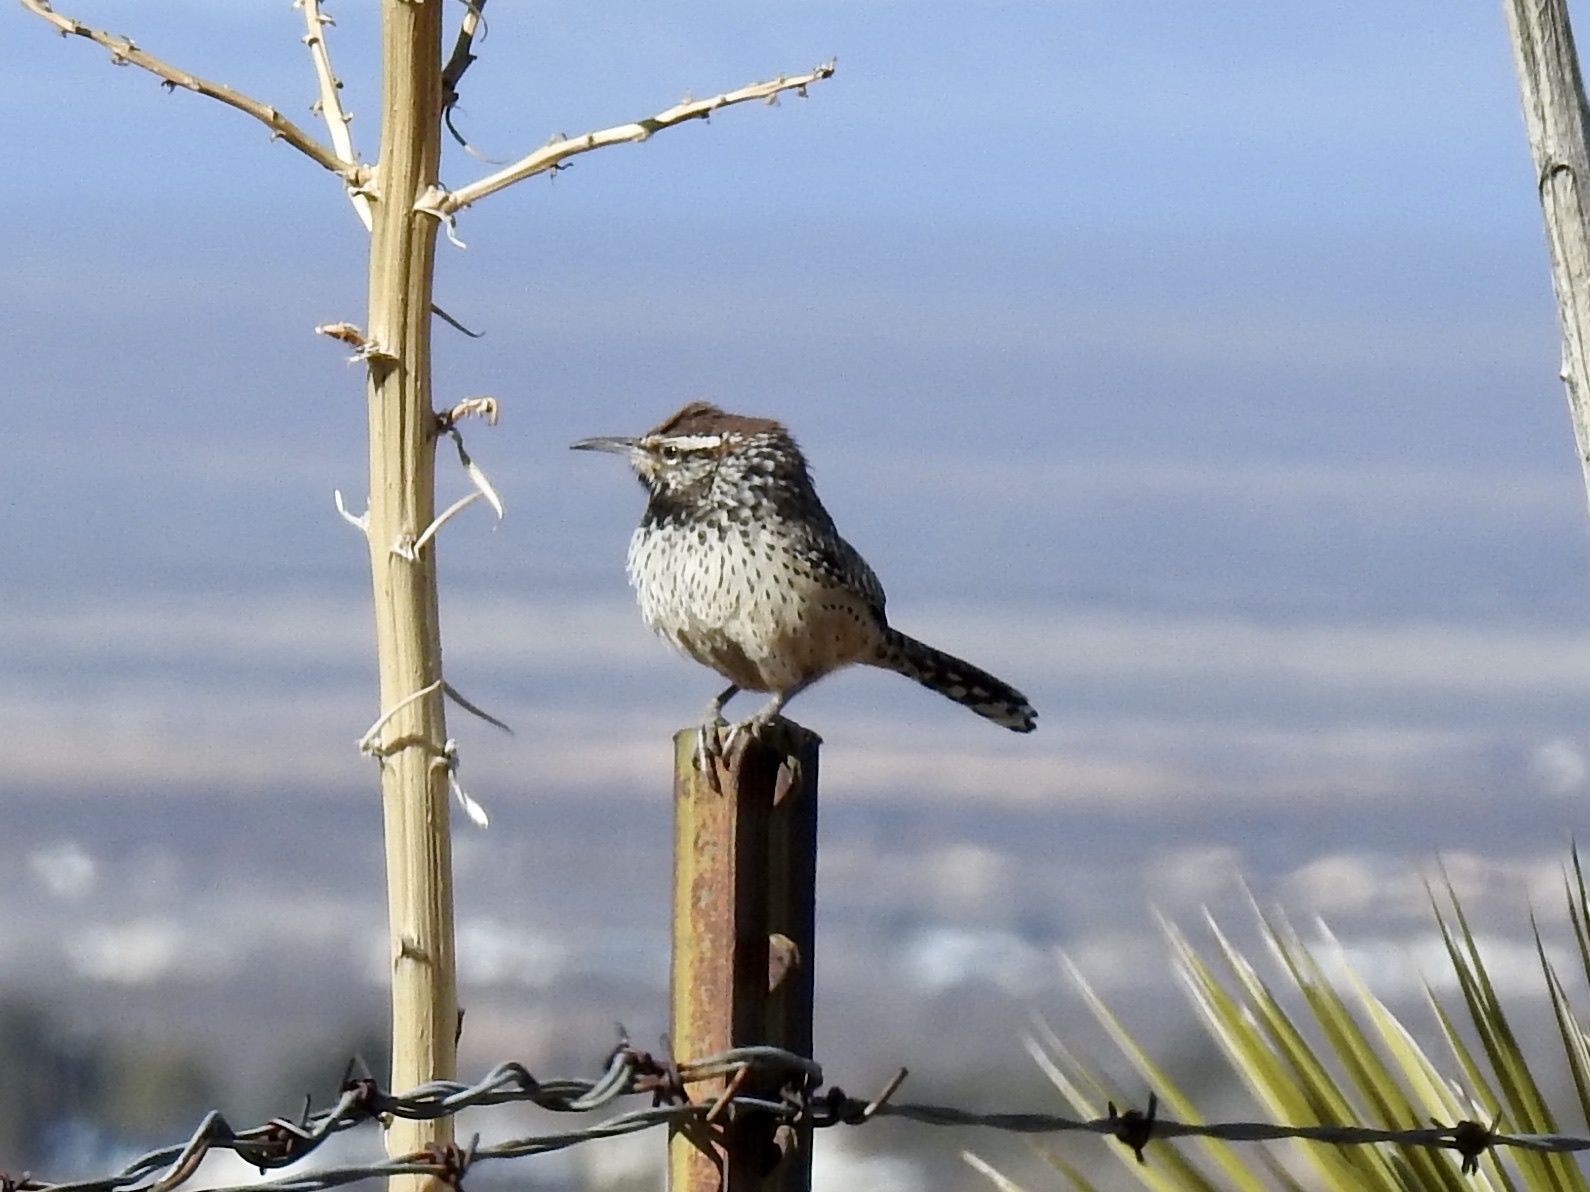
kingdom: Animalia
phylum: Chordata
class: Aves
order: Passeriformes
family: Troglodytidae
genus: Campylorhynchus
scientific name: Campylorhynchus brunneicapillus
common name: Cactus wren
